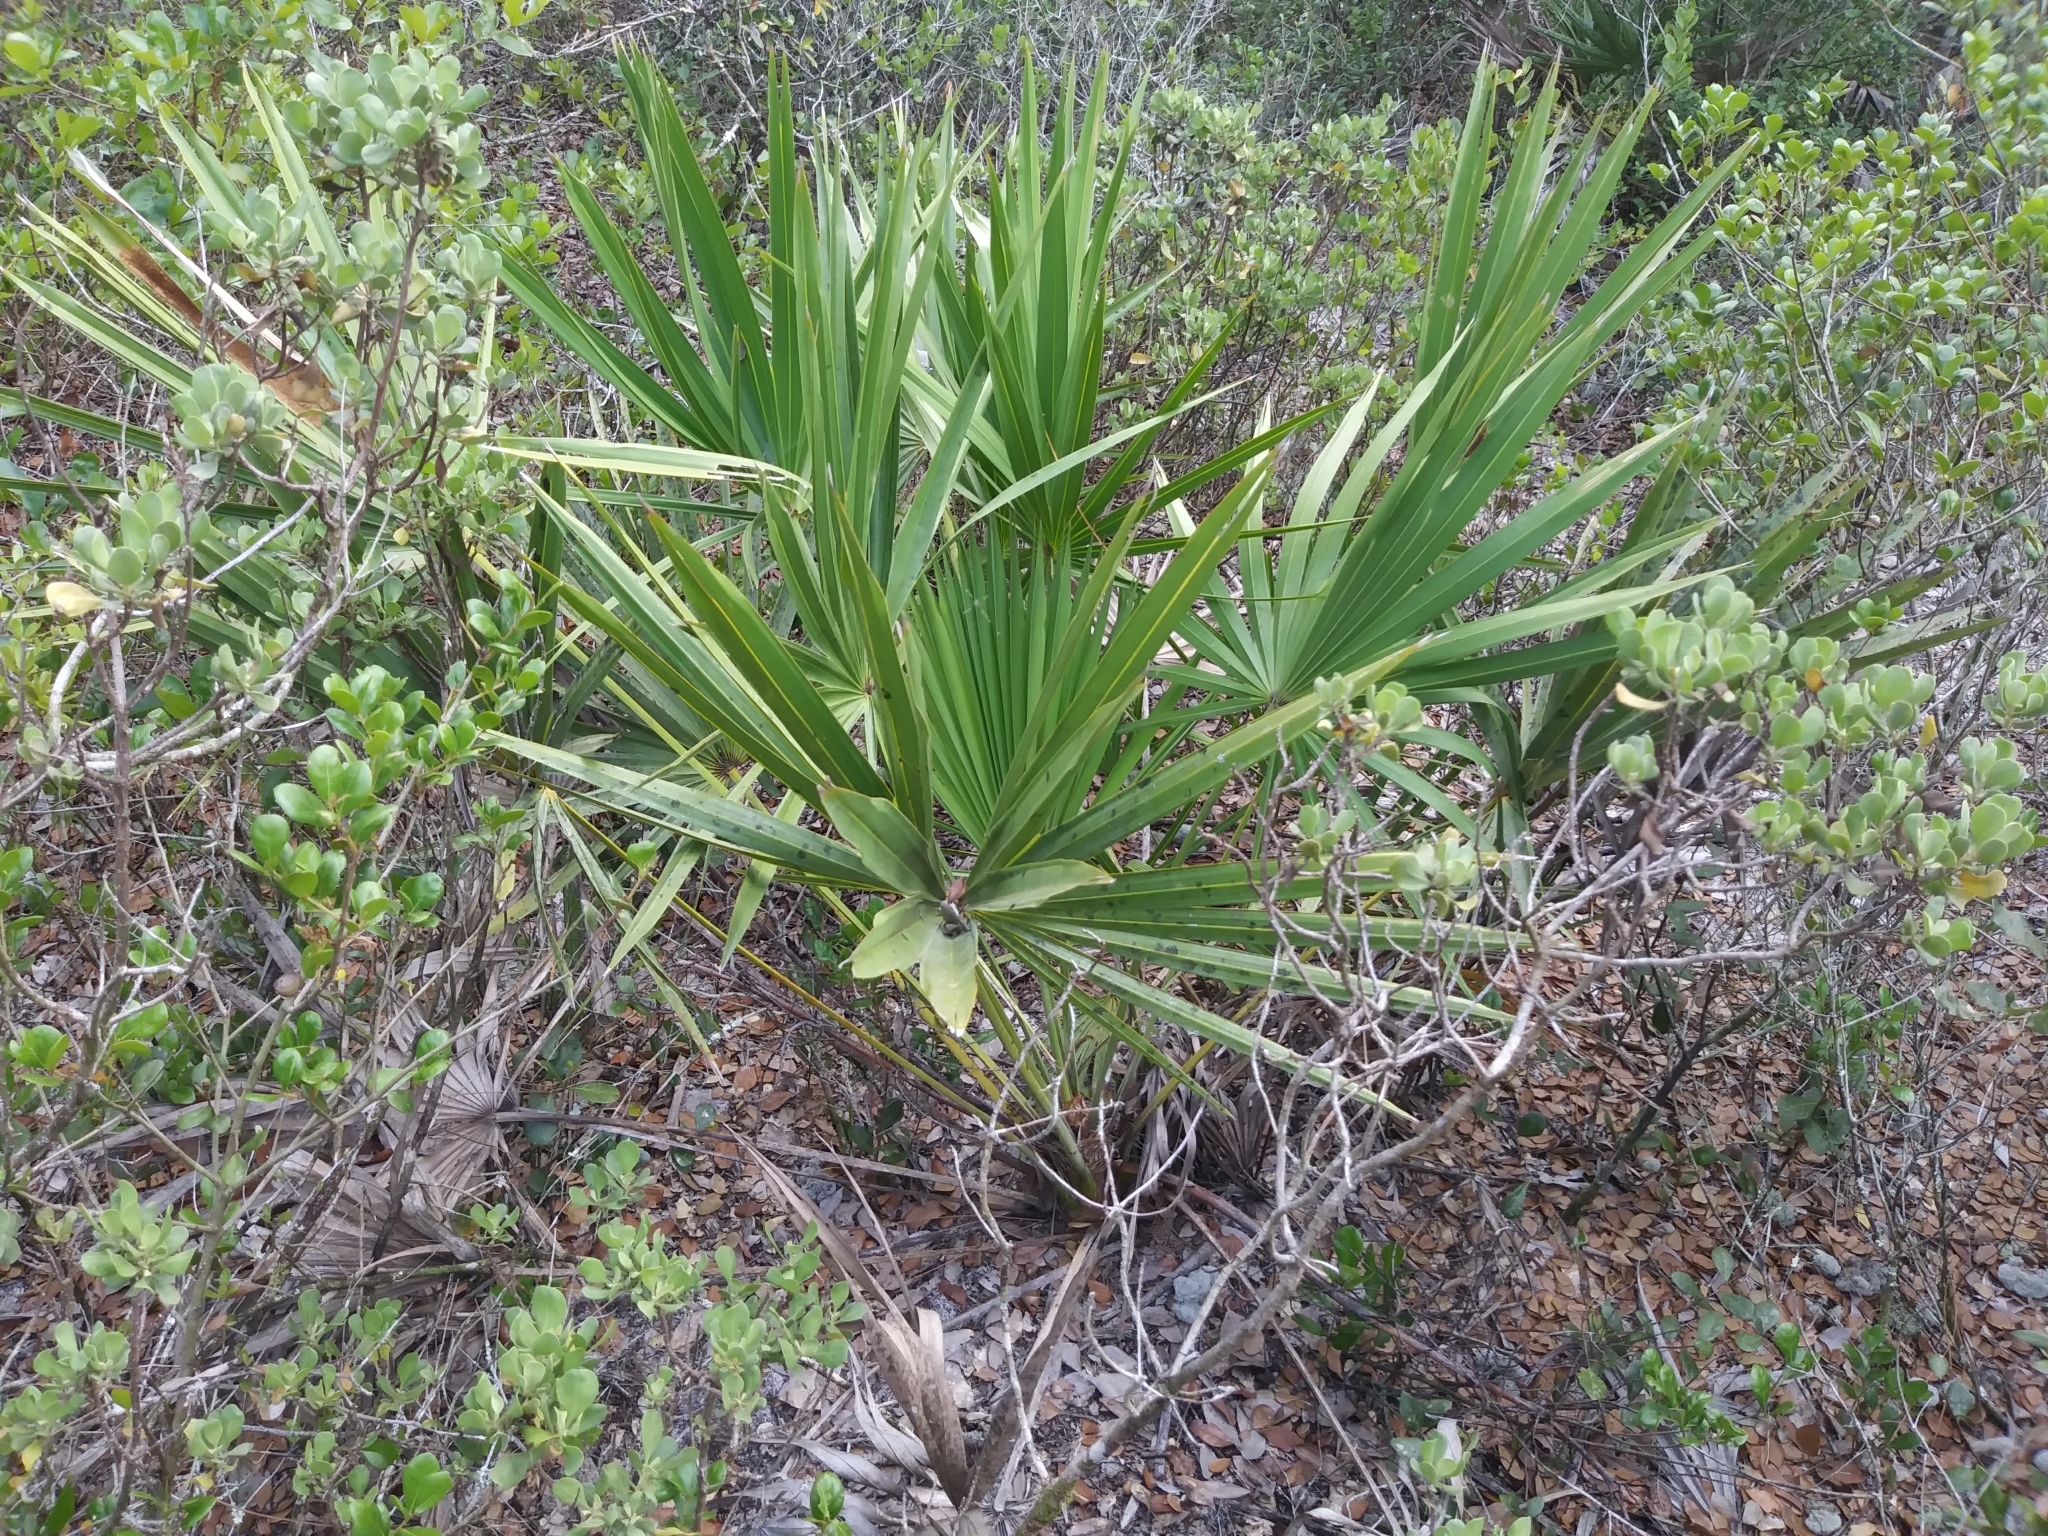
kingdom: Plantae
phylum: Tracheophyta
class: Liliopsida
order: Arecales
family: Arecaceae
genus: Serenoa
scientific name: Serenoa repens
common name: Saw-palmetto
